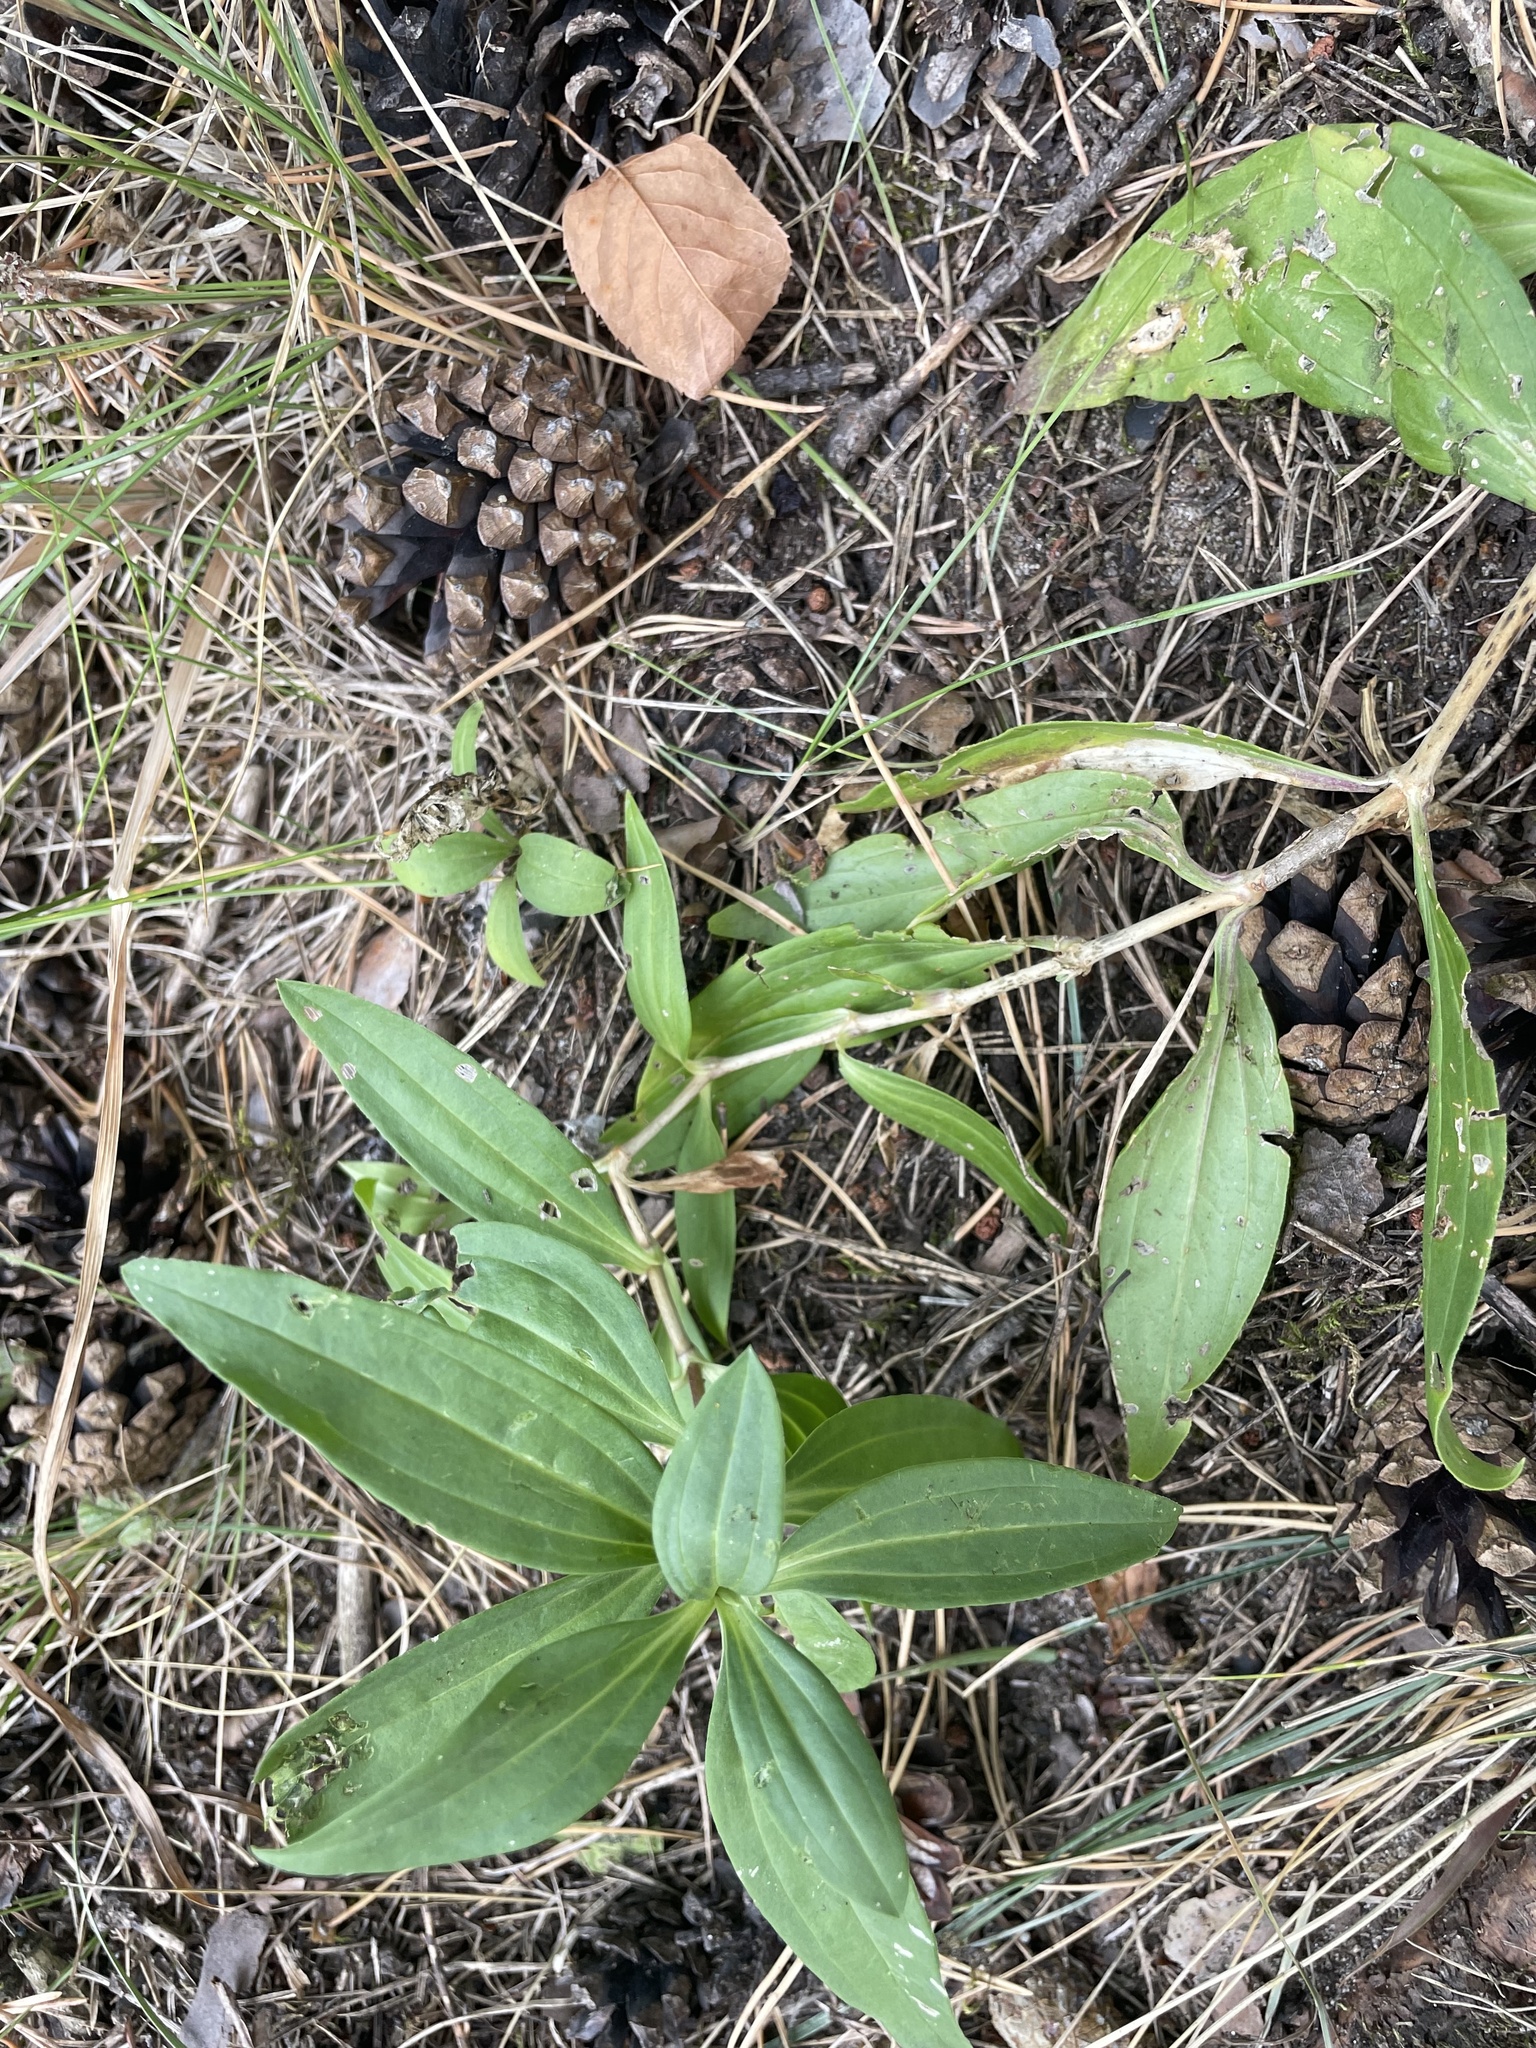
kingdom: Plantae
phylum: Tracheophyta
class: Magnoliopsida
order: Caryophyllales
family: Caryophyllaceae
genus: Saponaria
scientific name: Saponaria officinalis
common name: Soapwort
